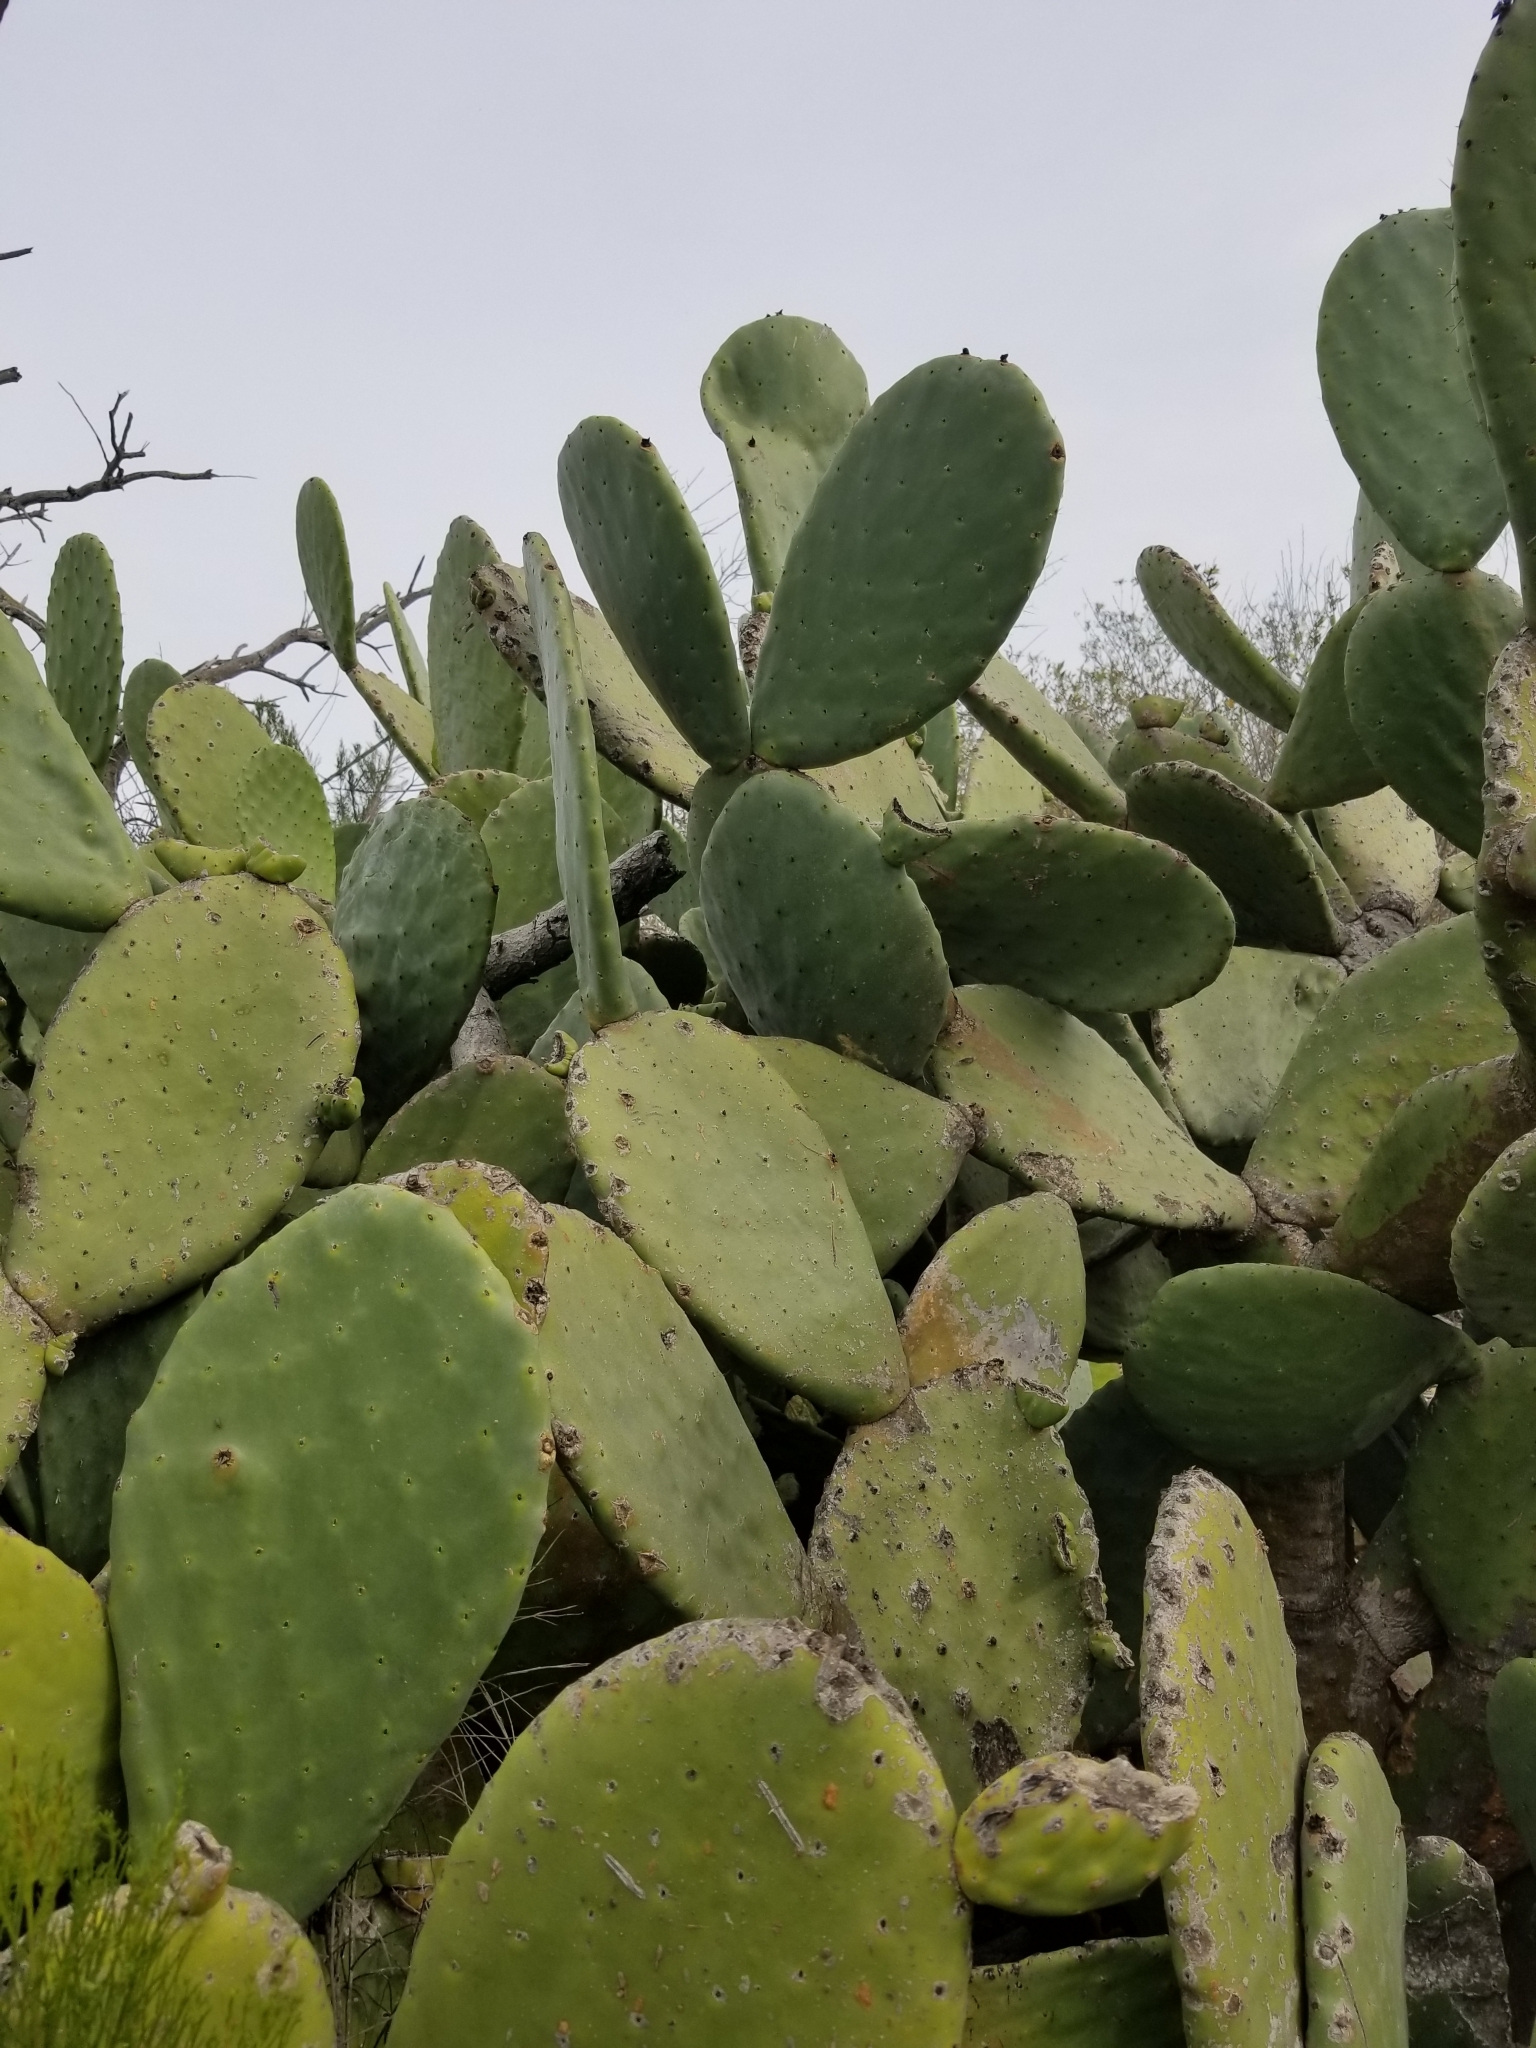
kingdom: Plantae
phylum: Tracheophyta
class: Magnoliopsida
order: Caryophyllales
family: Cactaceae
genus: Opuntia
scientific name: Opuntia ficus-indica
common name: Barbary fig
